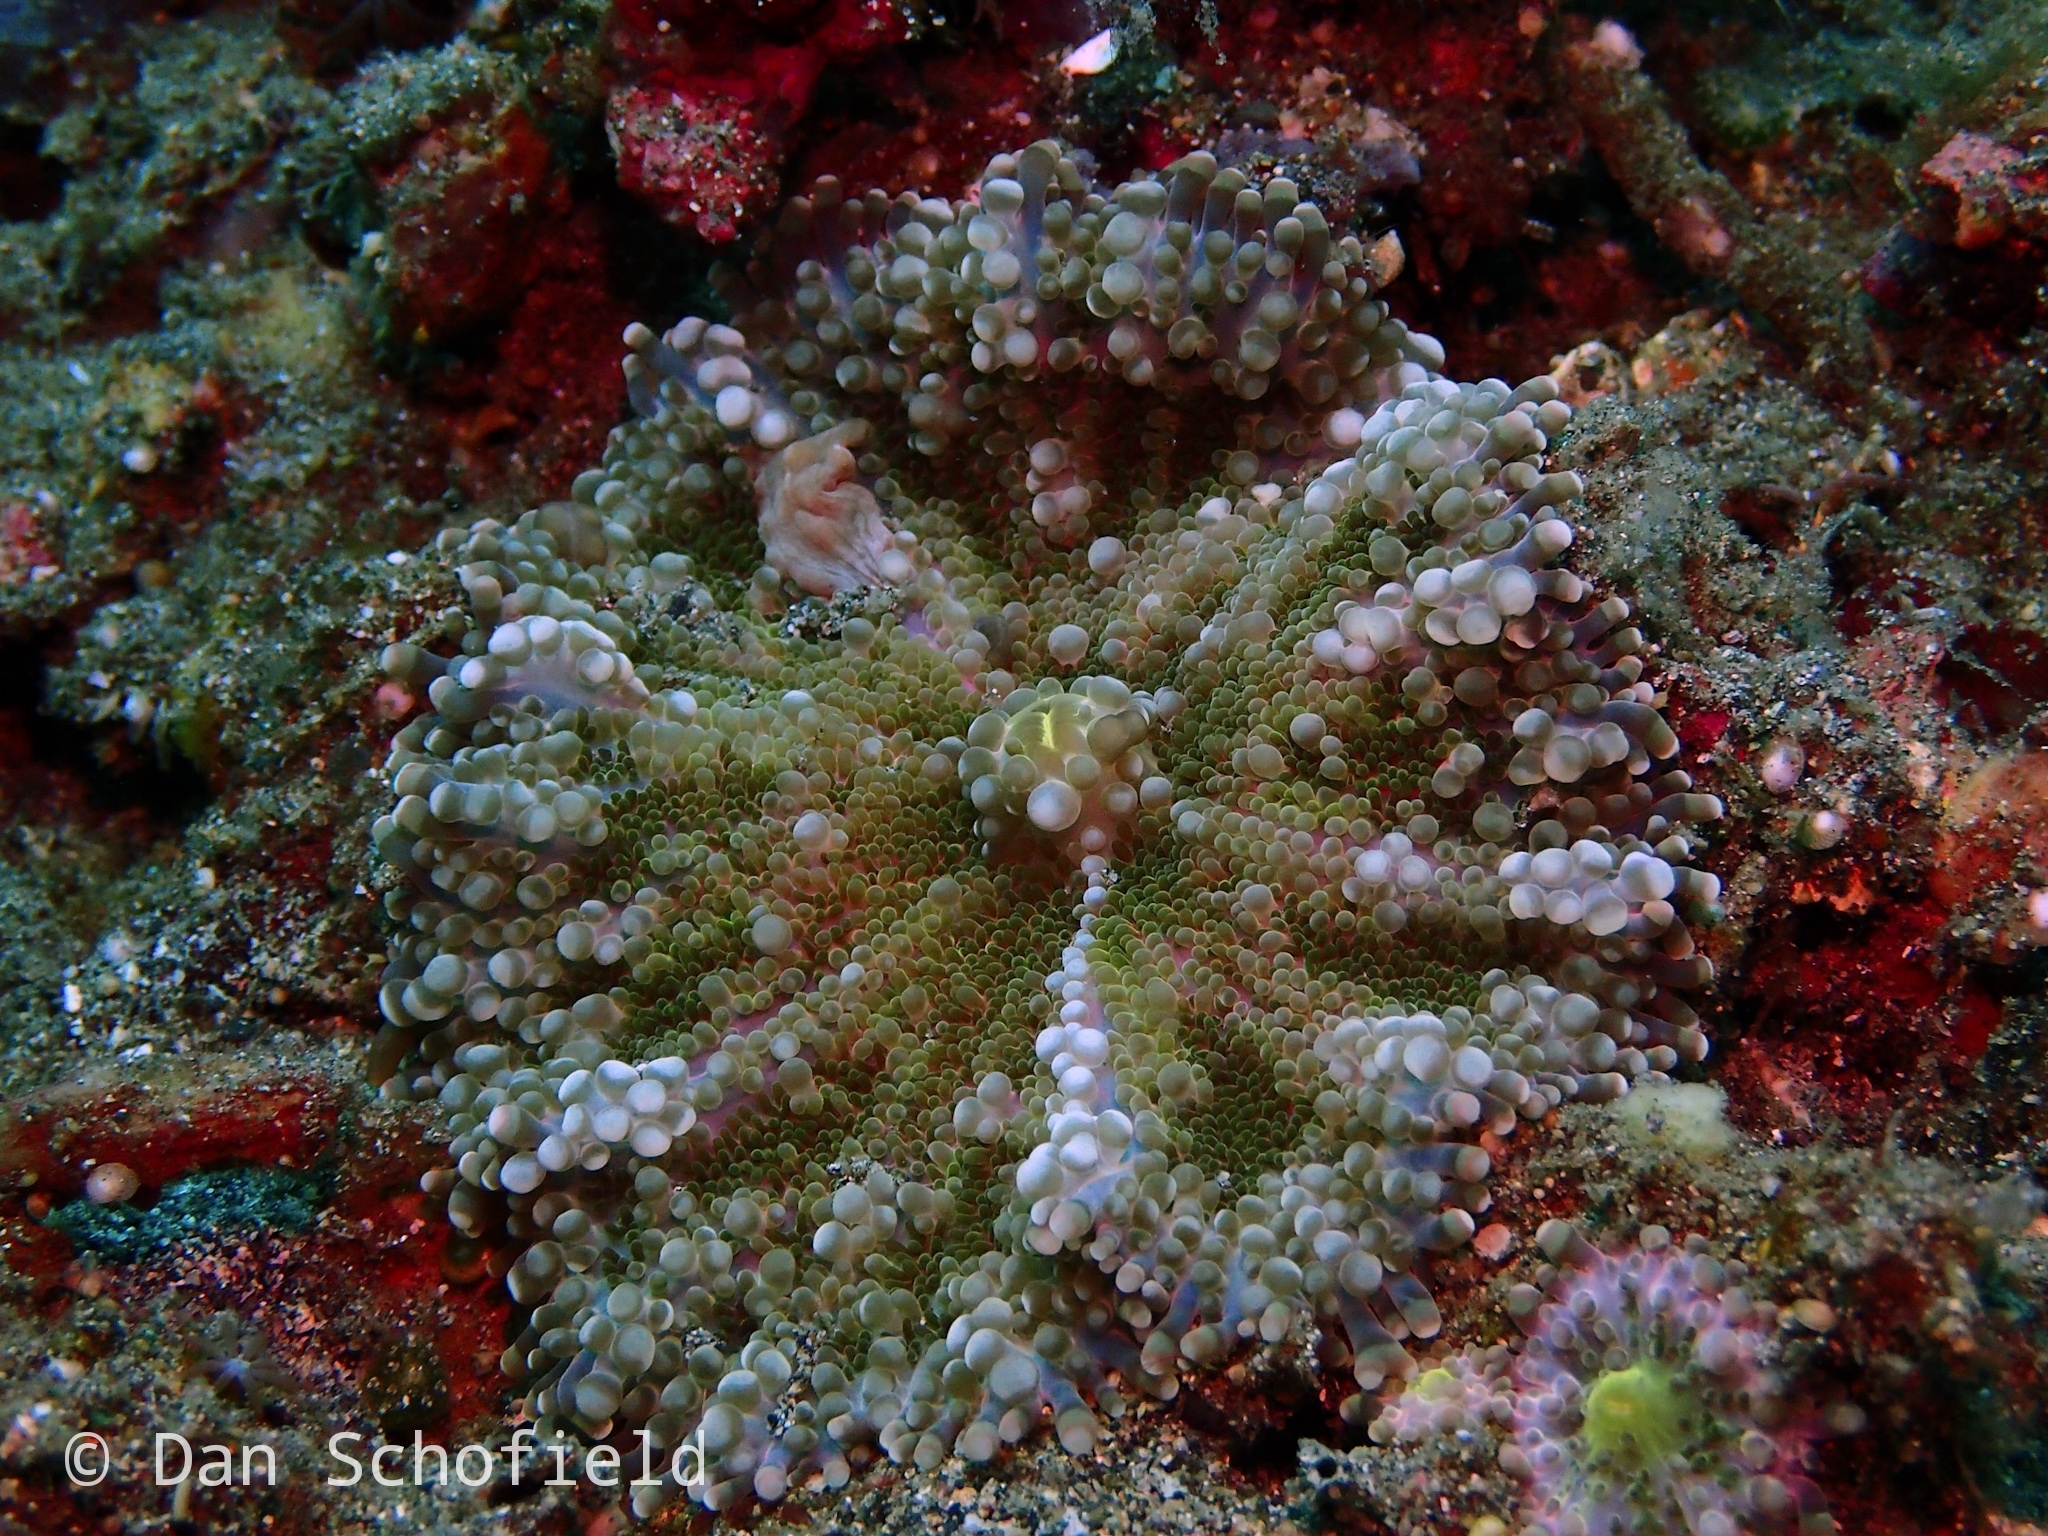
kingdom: Animalia
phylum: Cnidaria
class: Anthozoa
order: Corallimorpharia
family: Ricordeidae
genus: Ricordea
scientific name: Ricordea yuma
